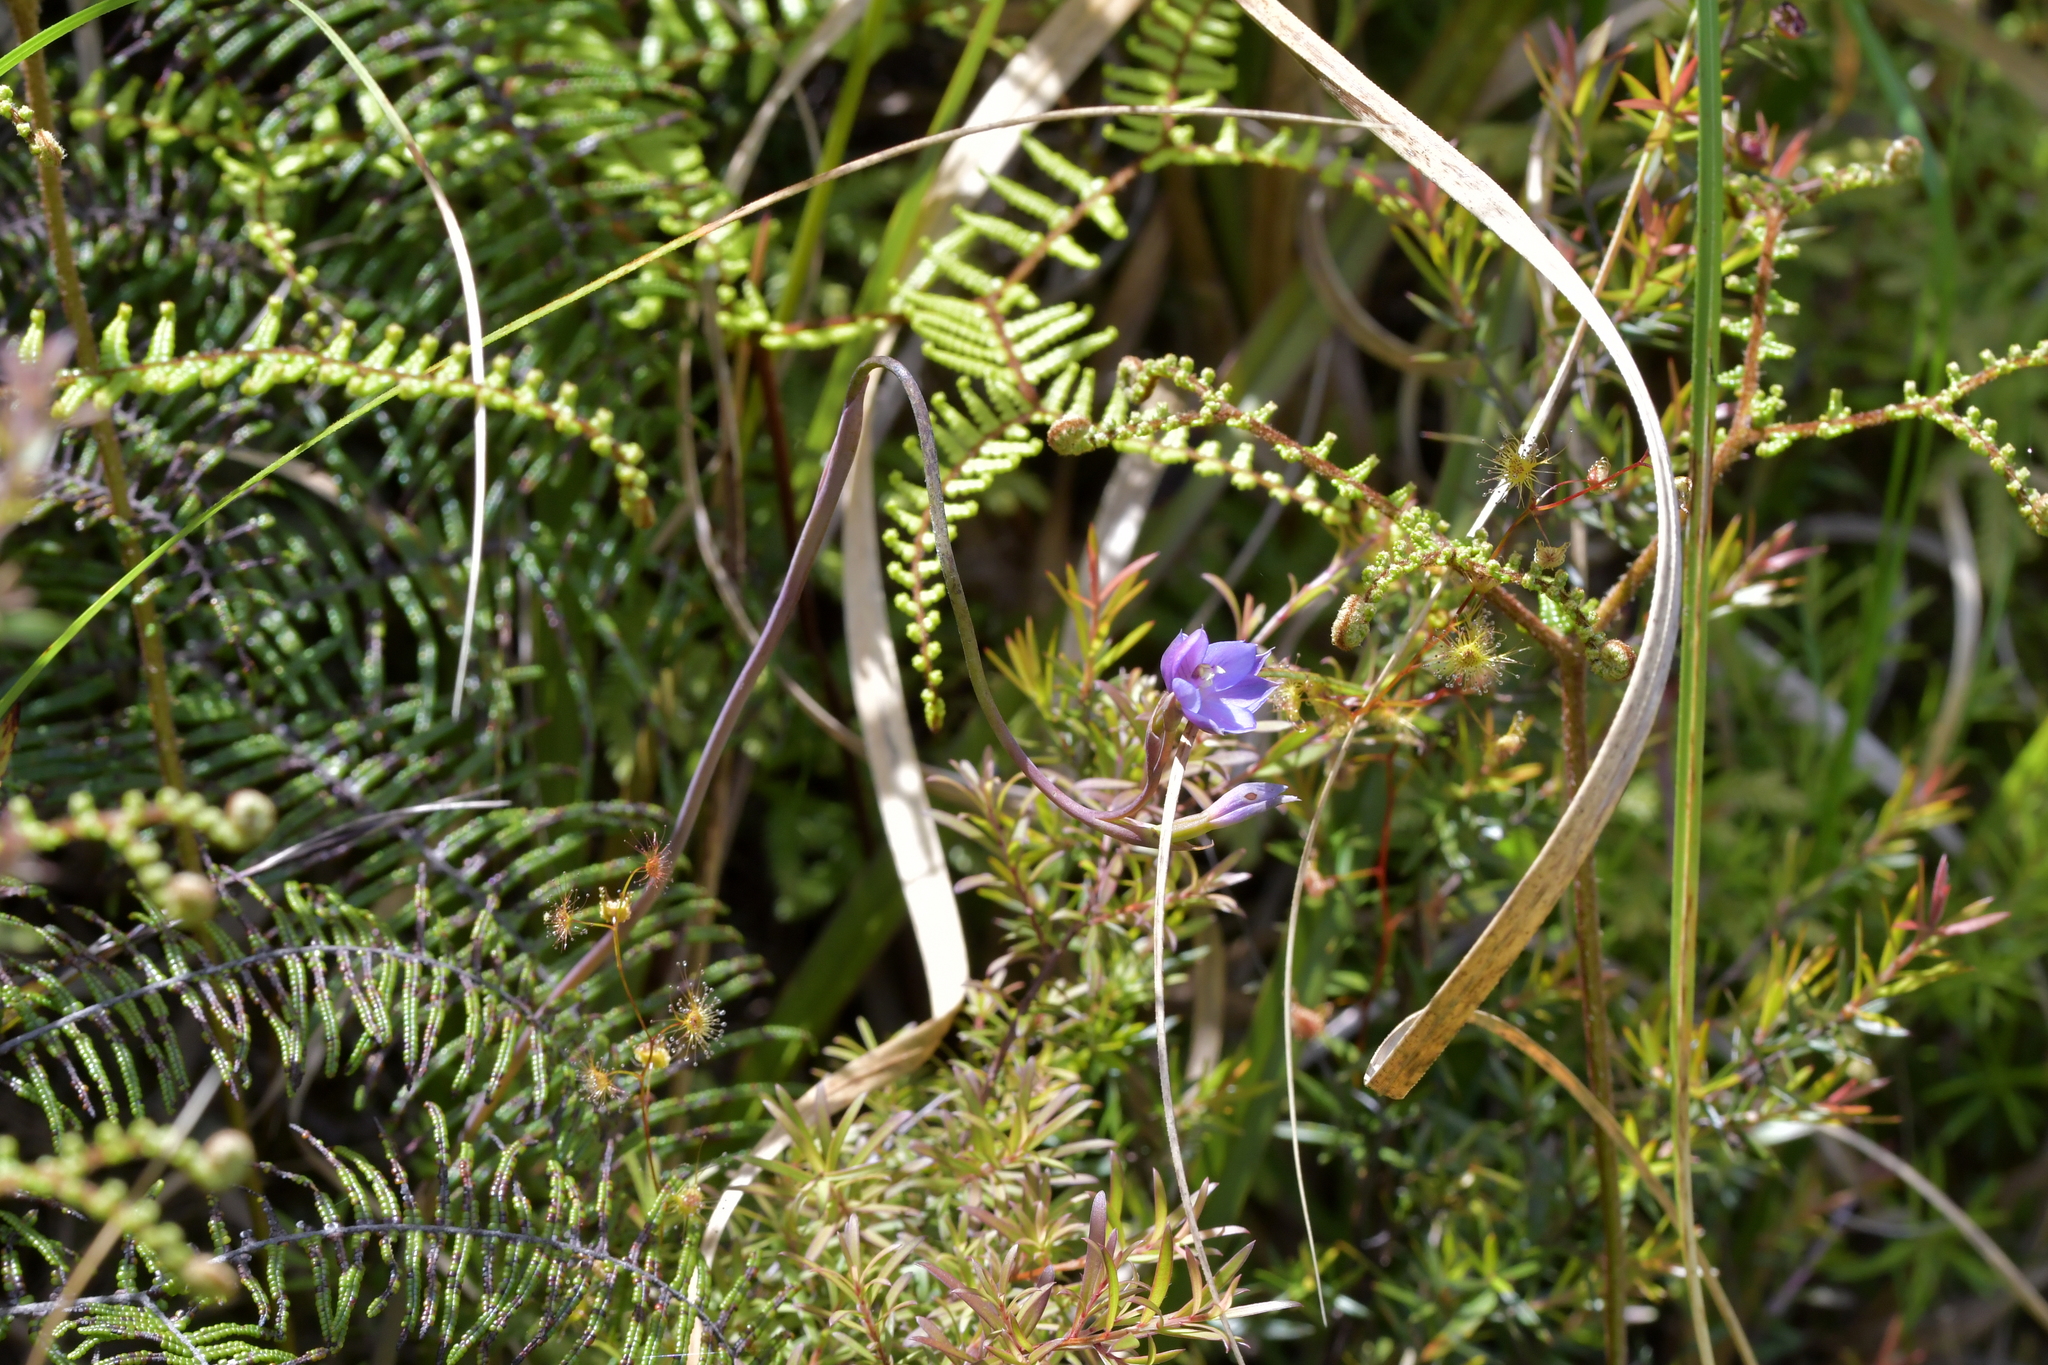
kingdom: Plantae
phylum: Tracheophyta
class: Liliopsida
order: Asparagales
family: Orchidaceae
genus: Thelymitra
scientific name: Thelymitra pulchella
